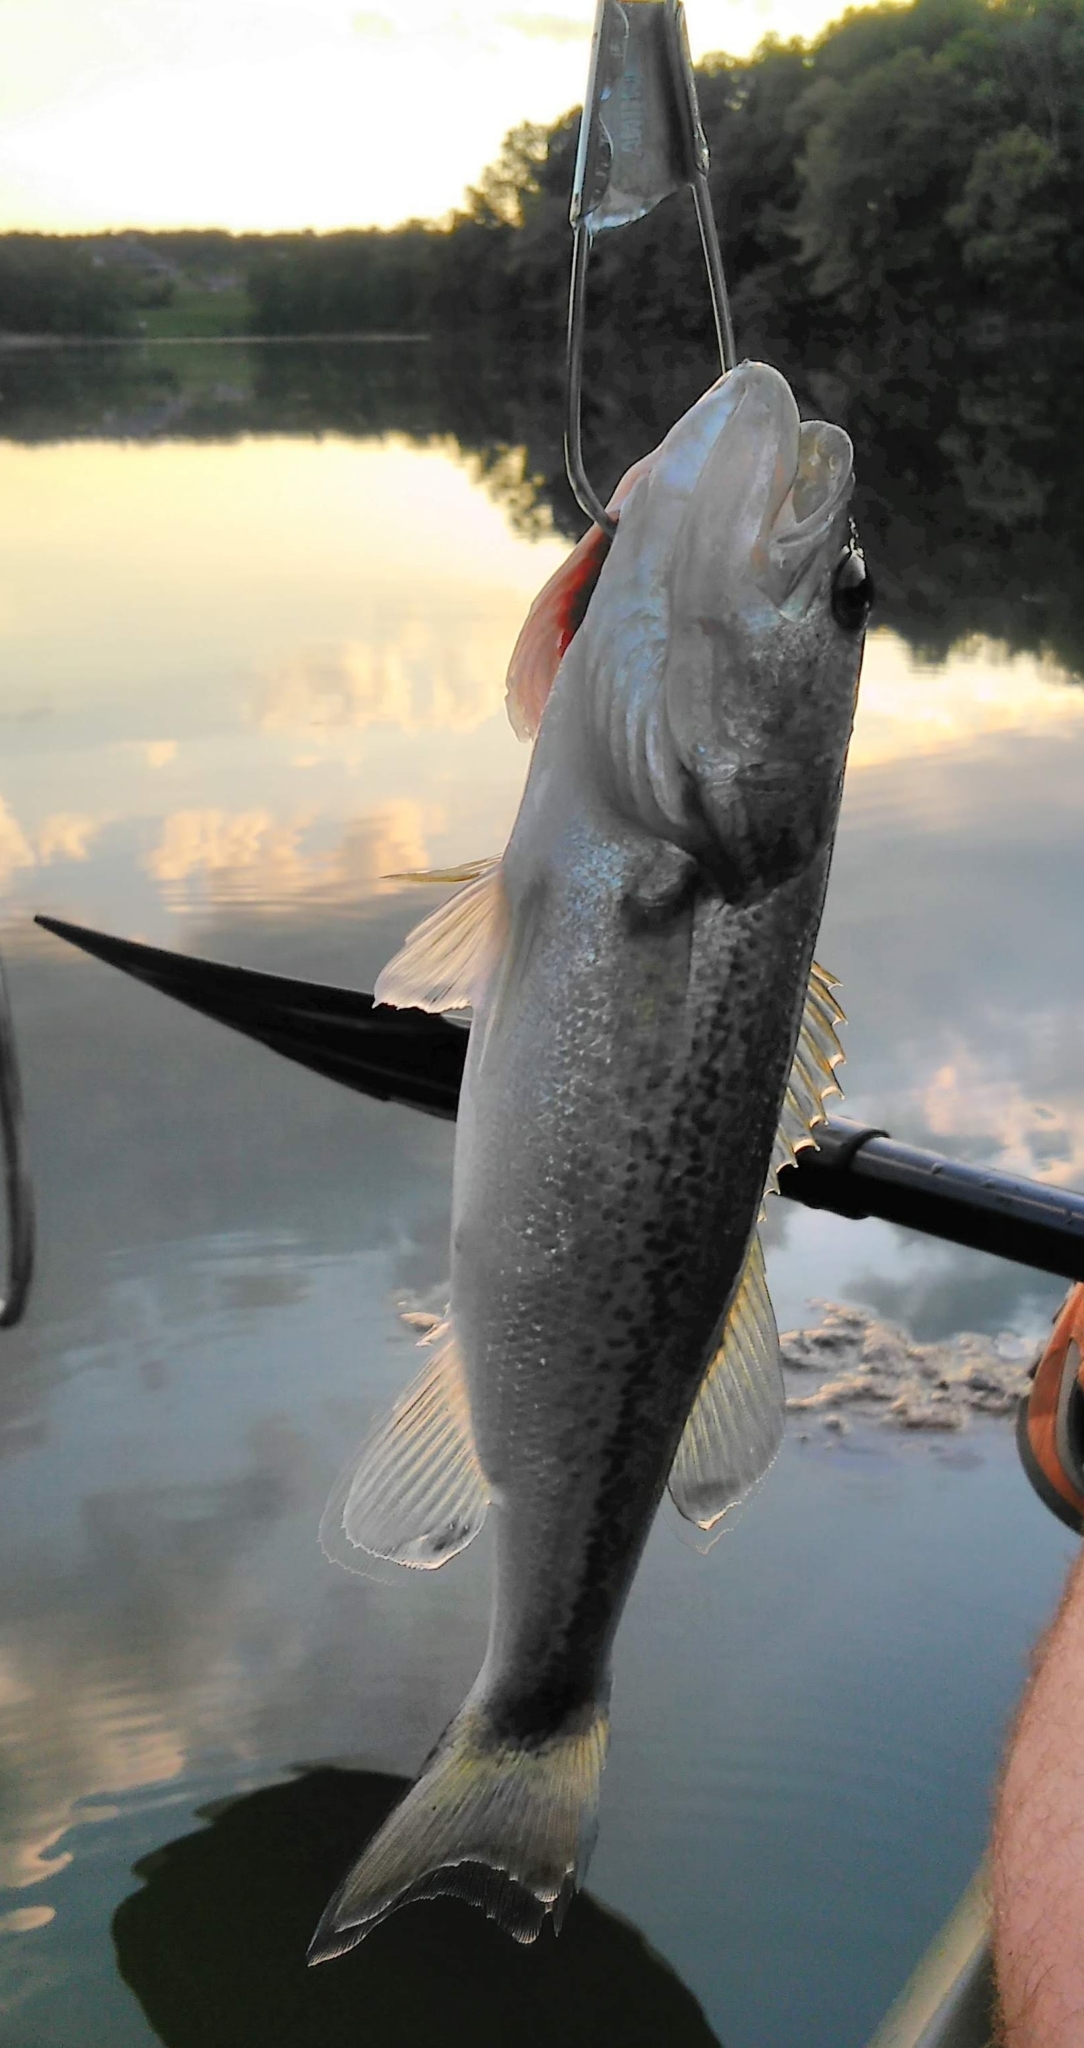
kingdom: Animalia
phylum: Chordata
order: Perciformes
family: Centrarchidae
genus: Micropterus
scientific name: Micropterus
